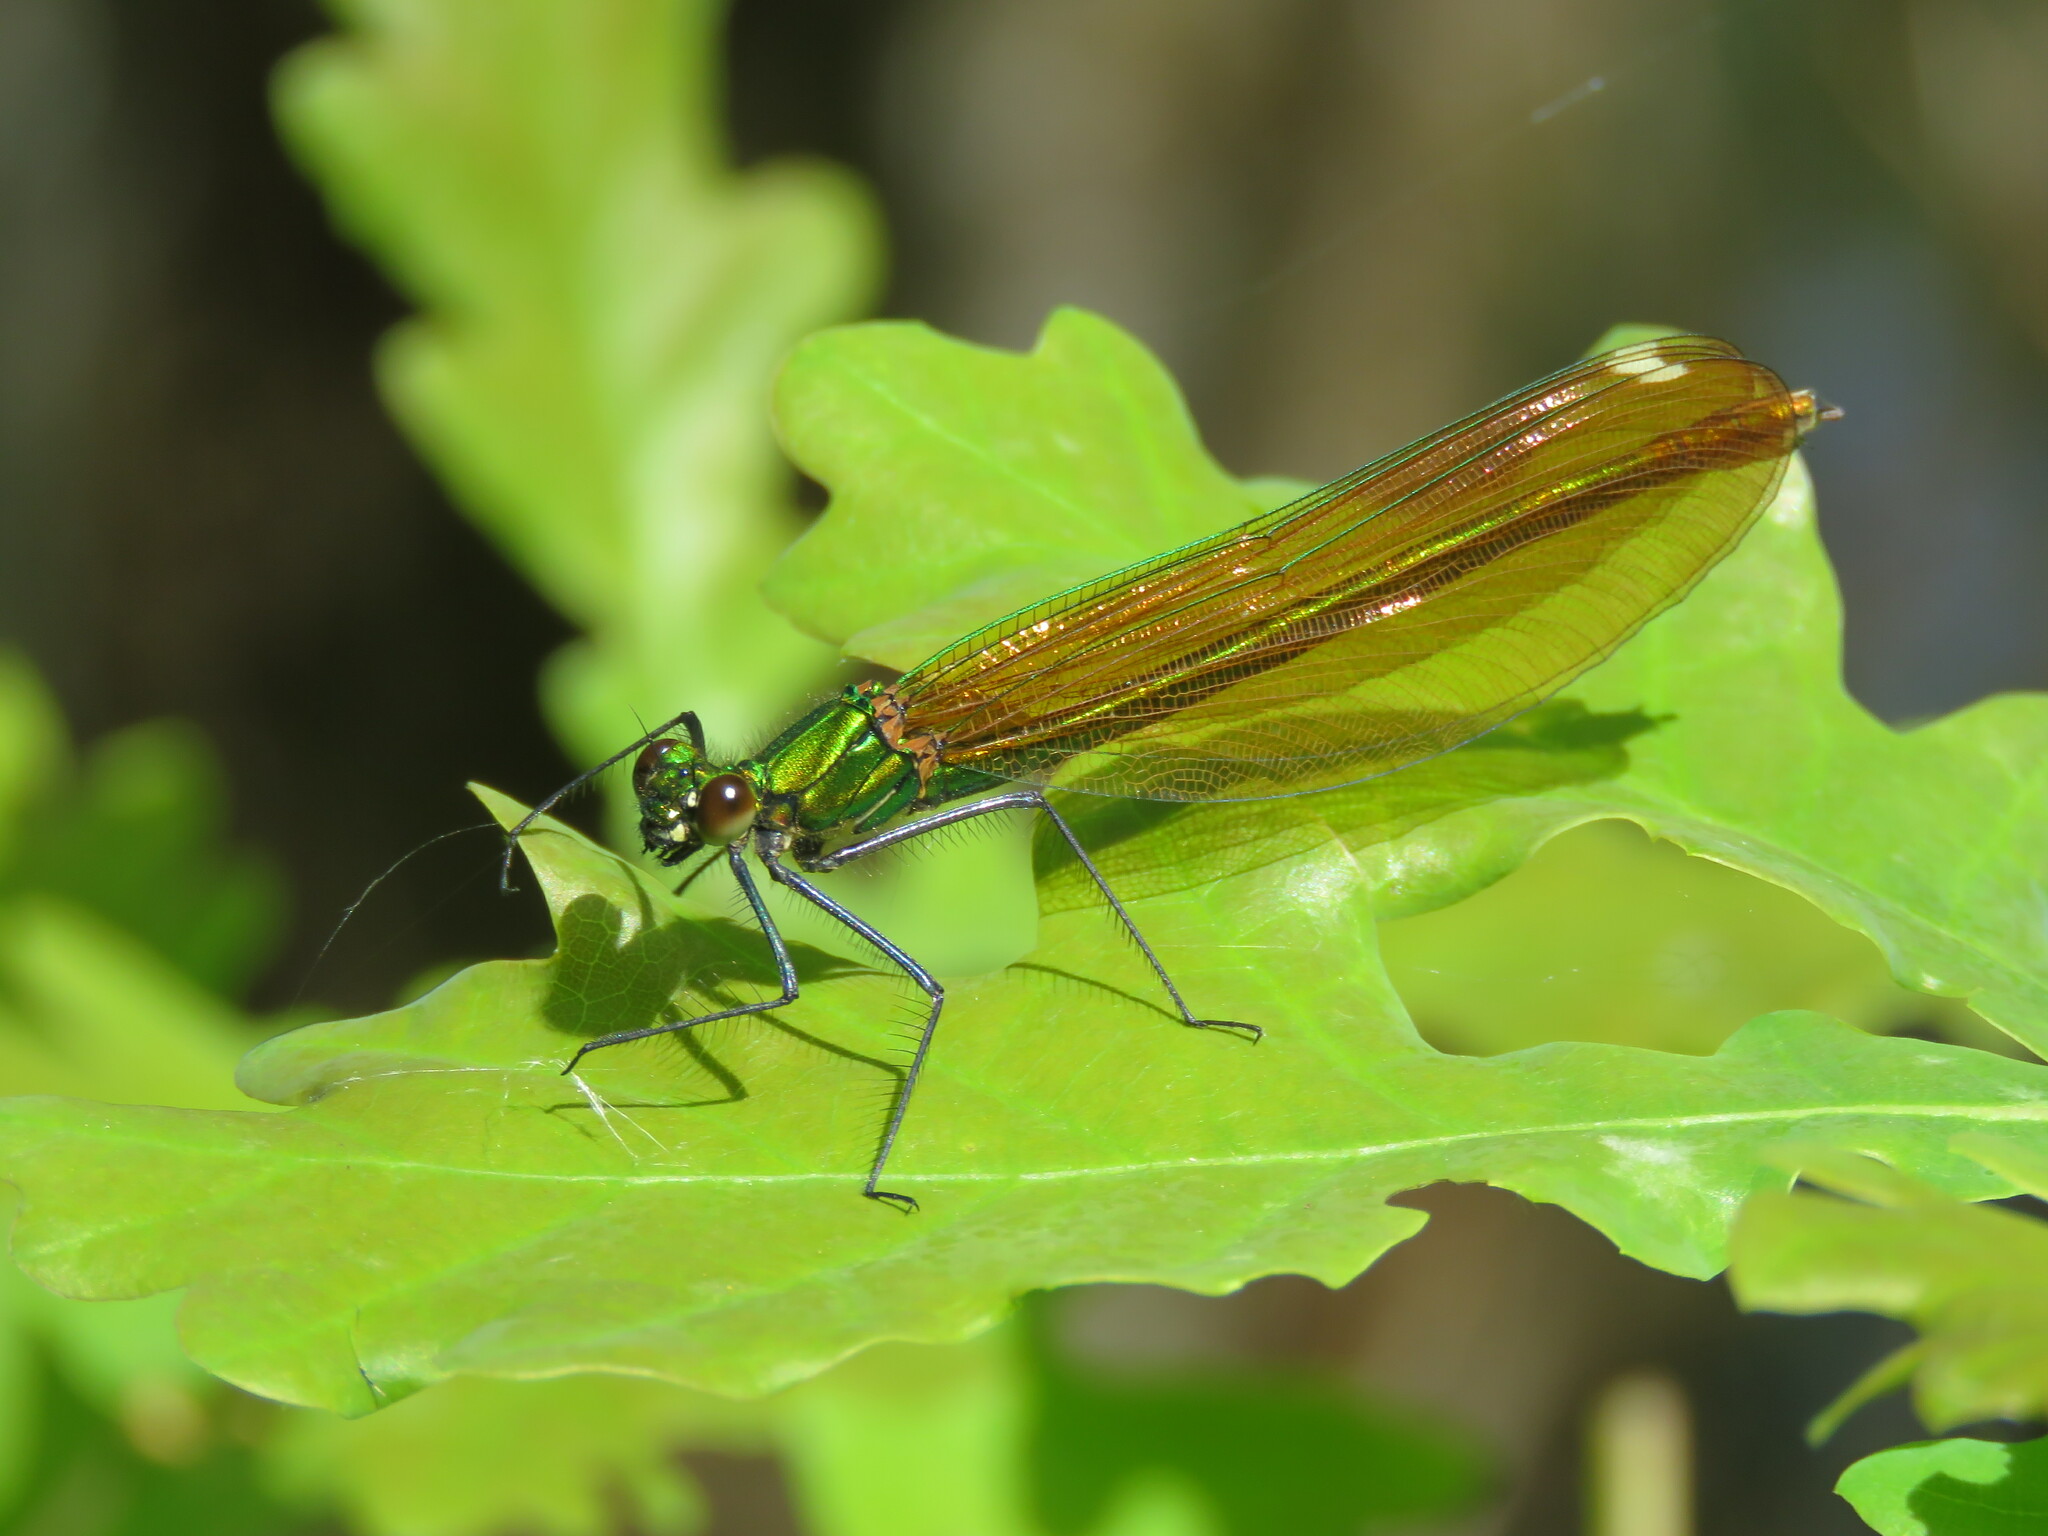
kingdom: Animalia
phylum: Arthropoda
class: Insecta
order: Odonata
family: Calopterygidae
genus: Calopteryx
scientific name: Calopteryx virgo
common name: Beautiful demoiselle
